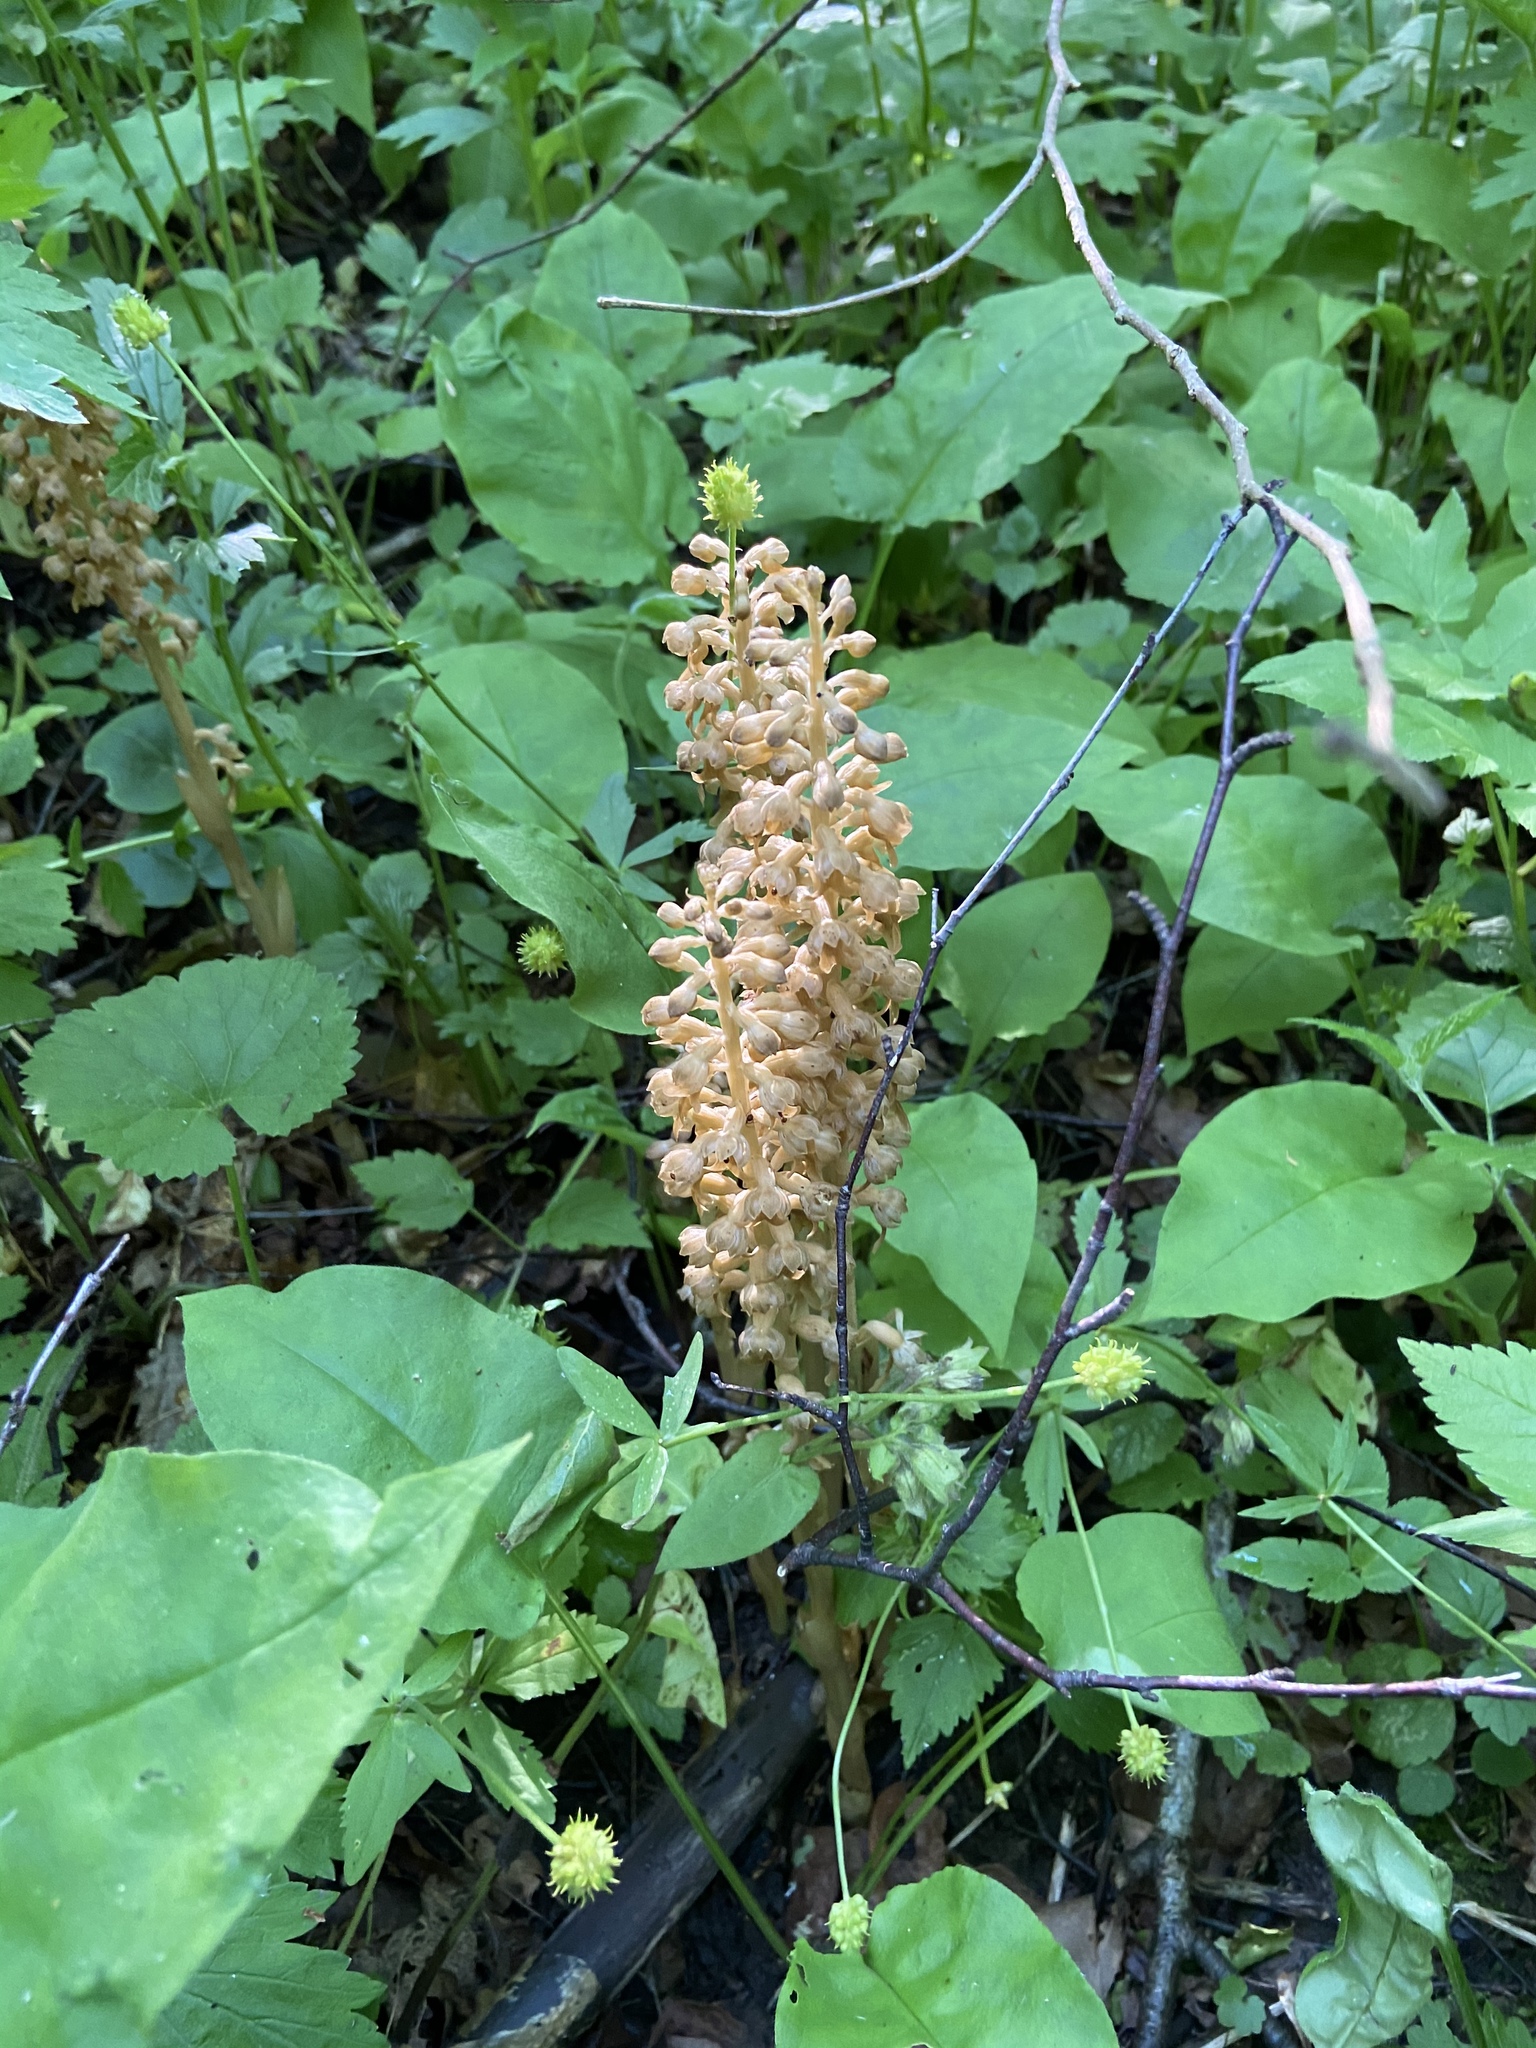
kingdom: Plantae
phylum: Tracheophyta
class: Liliopsida
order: Asparagales
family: Orchidaceae
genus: Neottia
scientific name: Neottia nidus-avis
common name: Bird's-nest orchid
